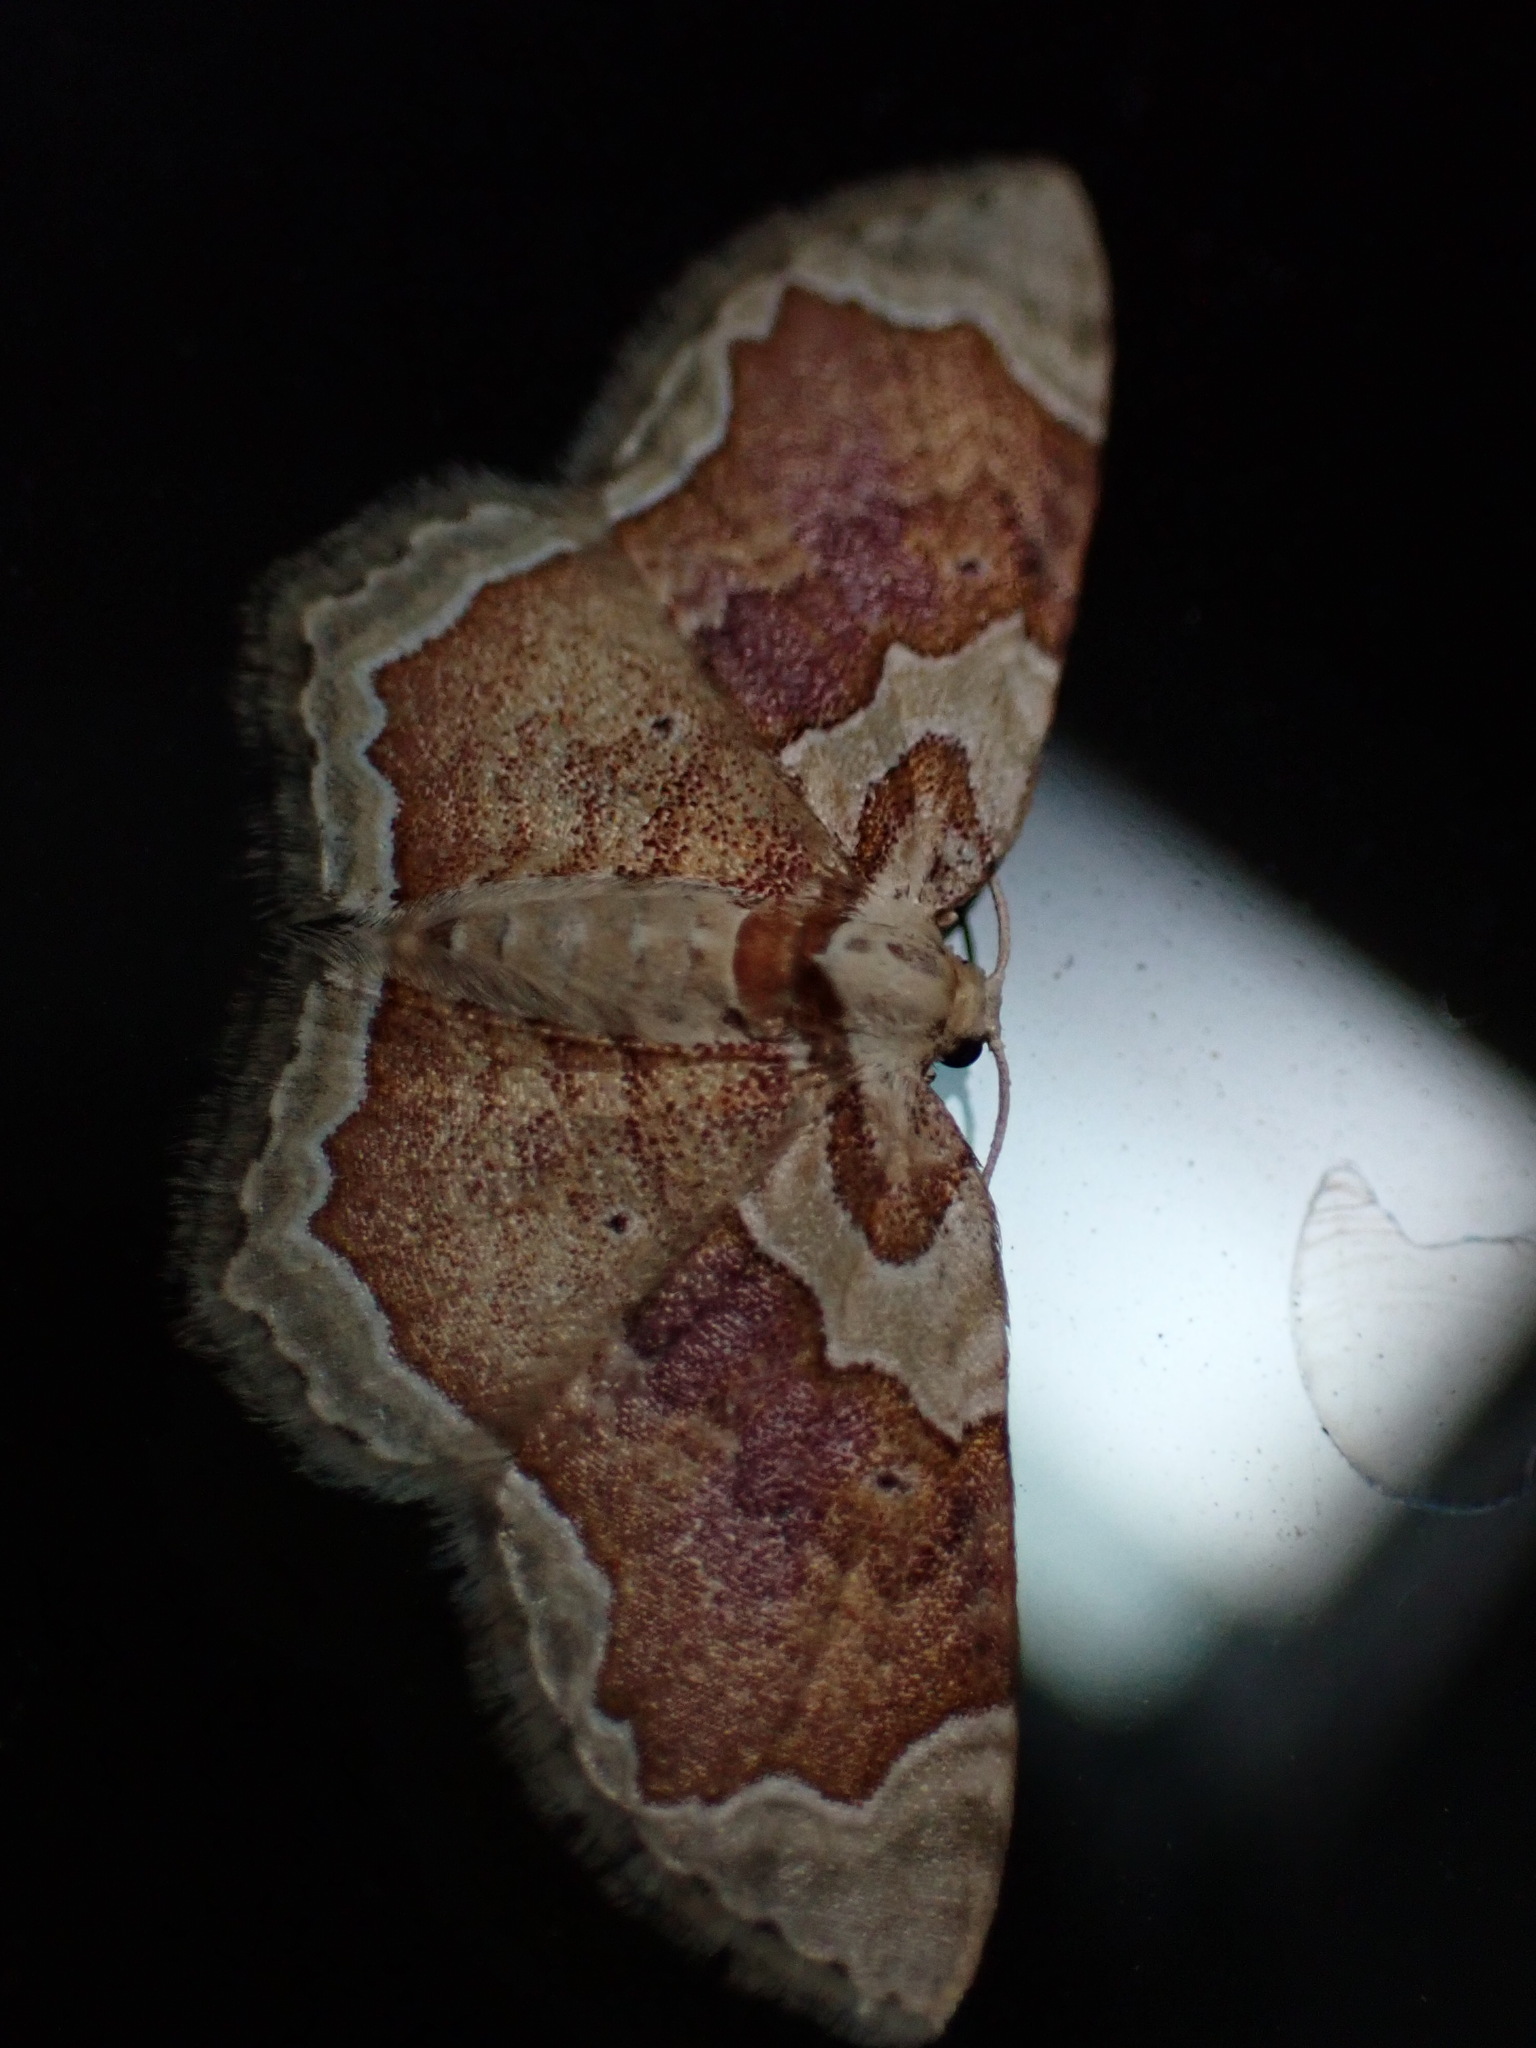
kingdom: Animalia
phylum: Arthropoda
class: Insecta
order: Lepidoptera
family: Geometridae
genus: Palpoctenidia
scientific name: Palpoctenidia phoenicosoma
